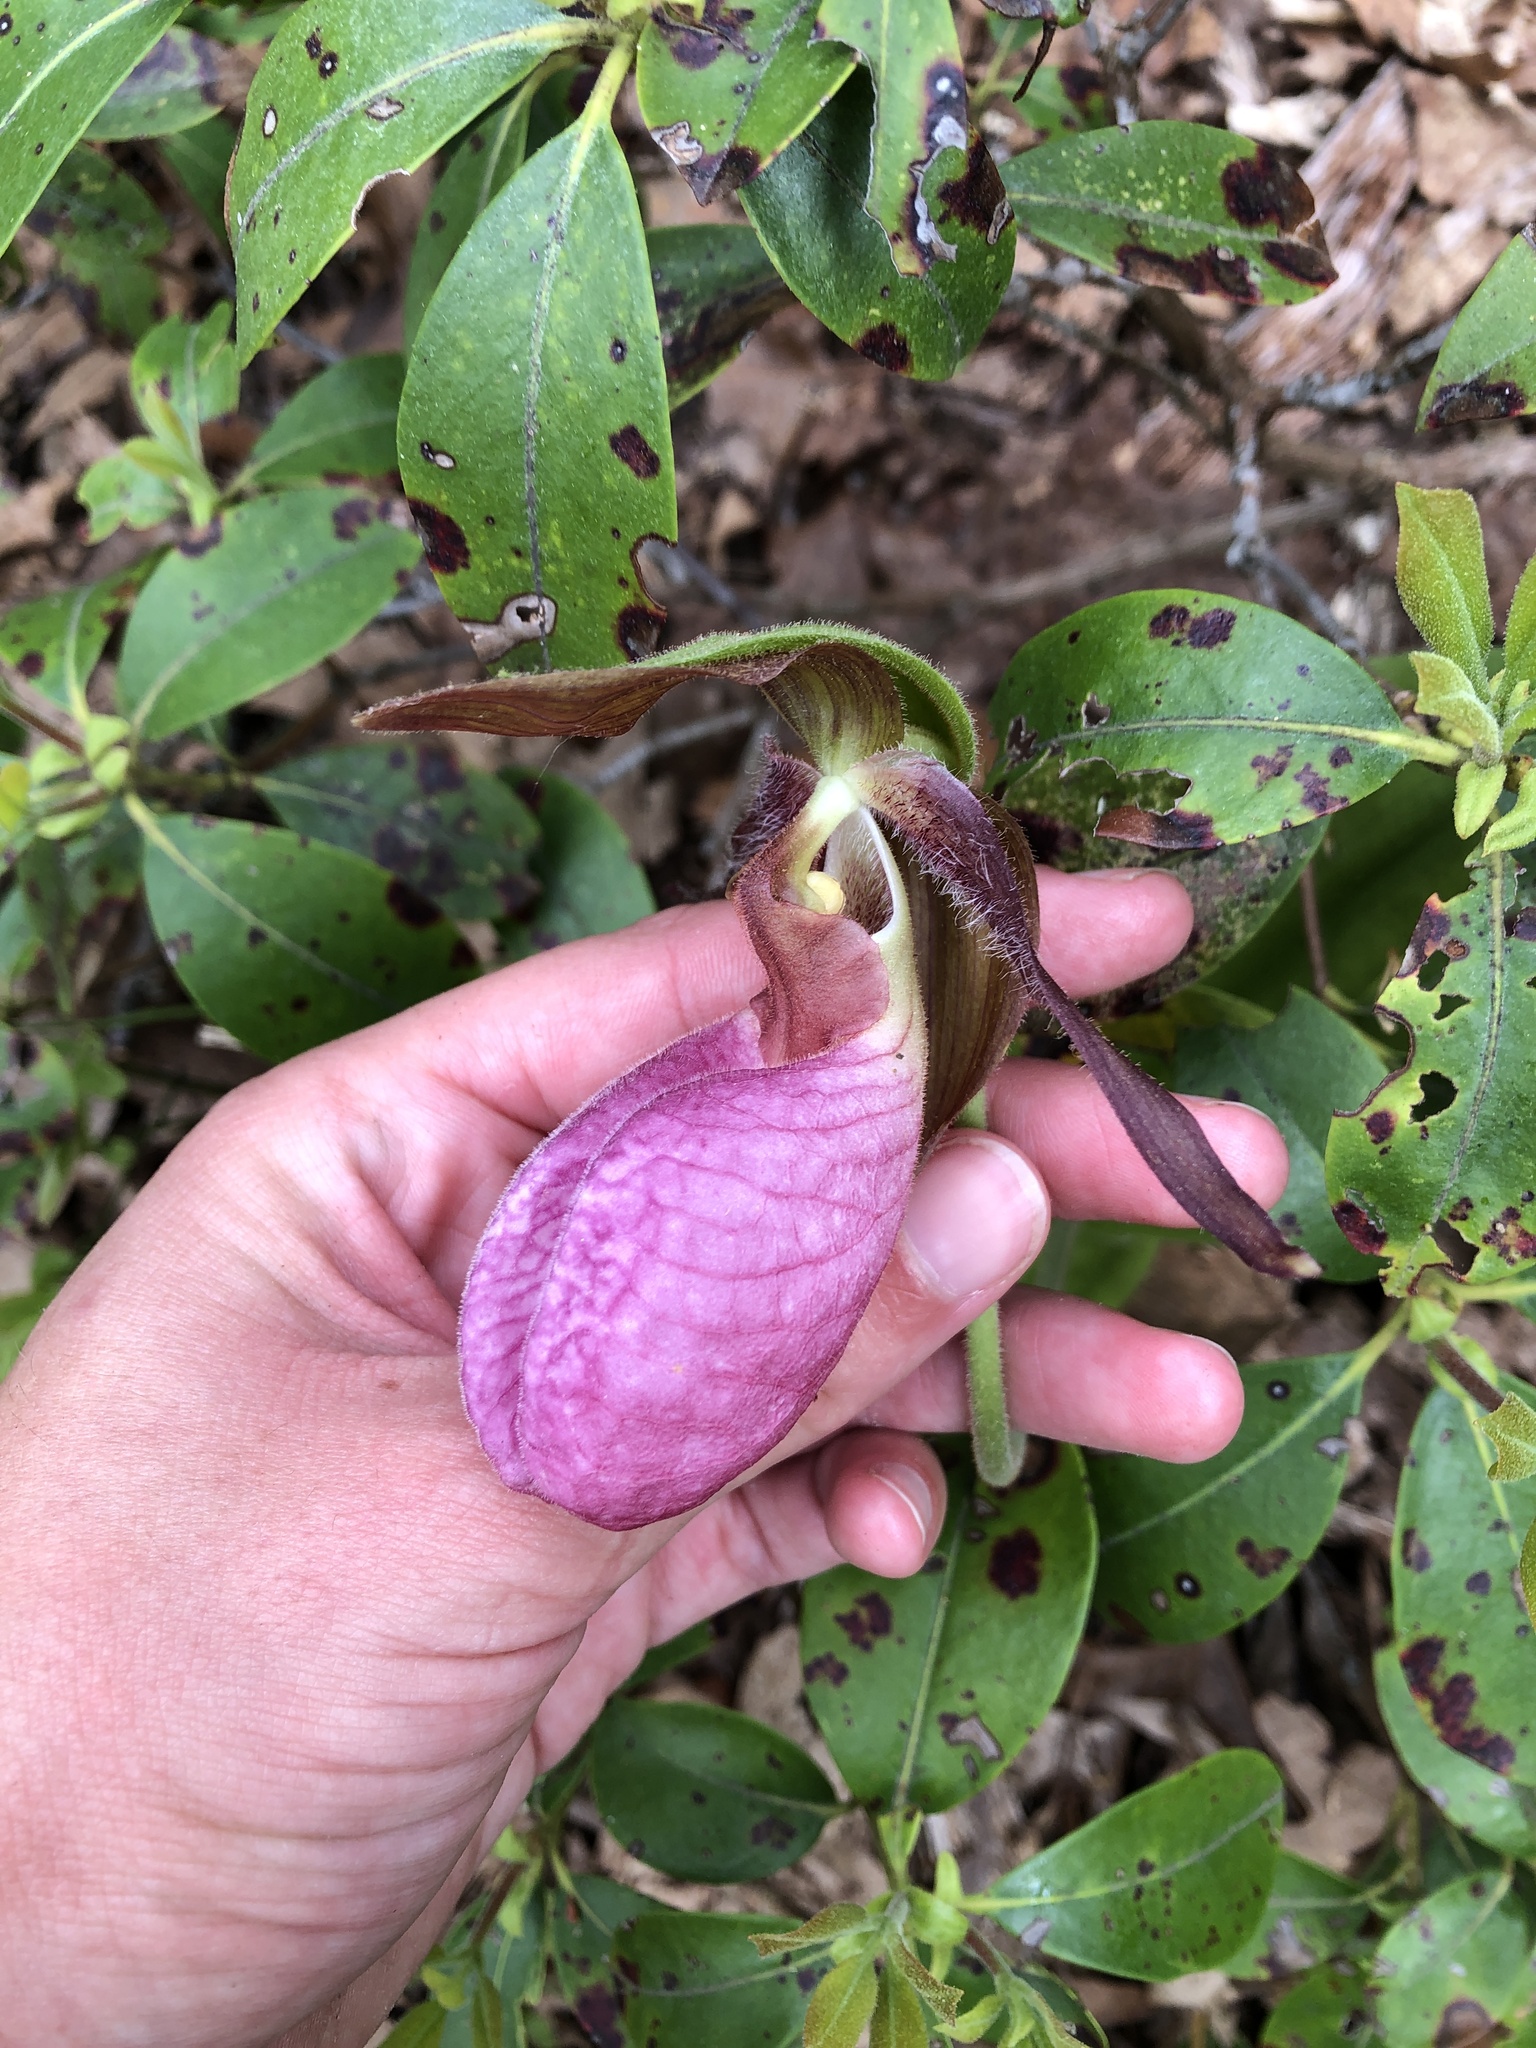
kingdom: Plantae
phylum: Tracheophyta
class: Liliopsida
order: Asparagales
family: Orchidaceae
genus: Cypripedium
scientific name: Cypripedium acaule
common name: Pink lady's-slipper
